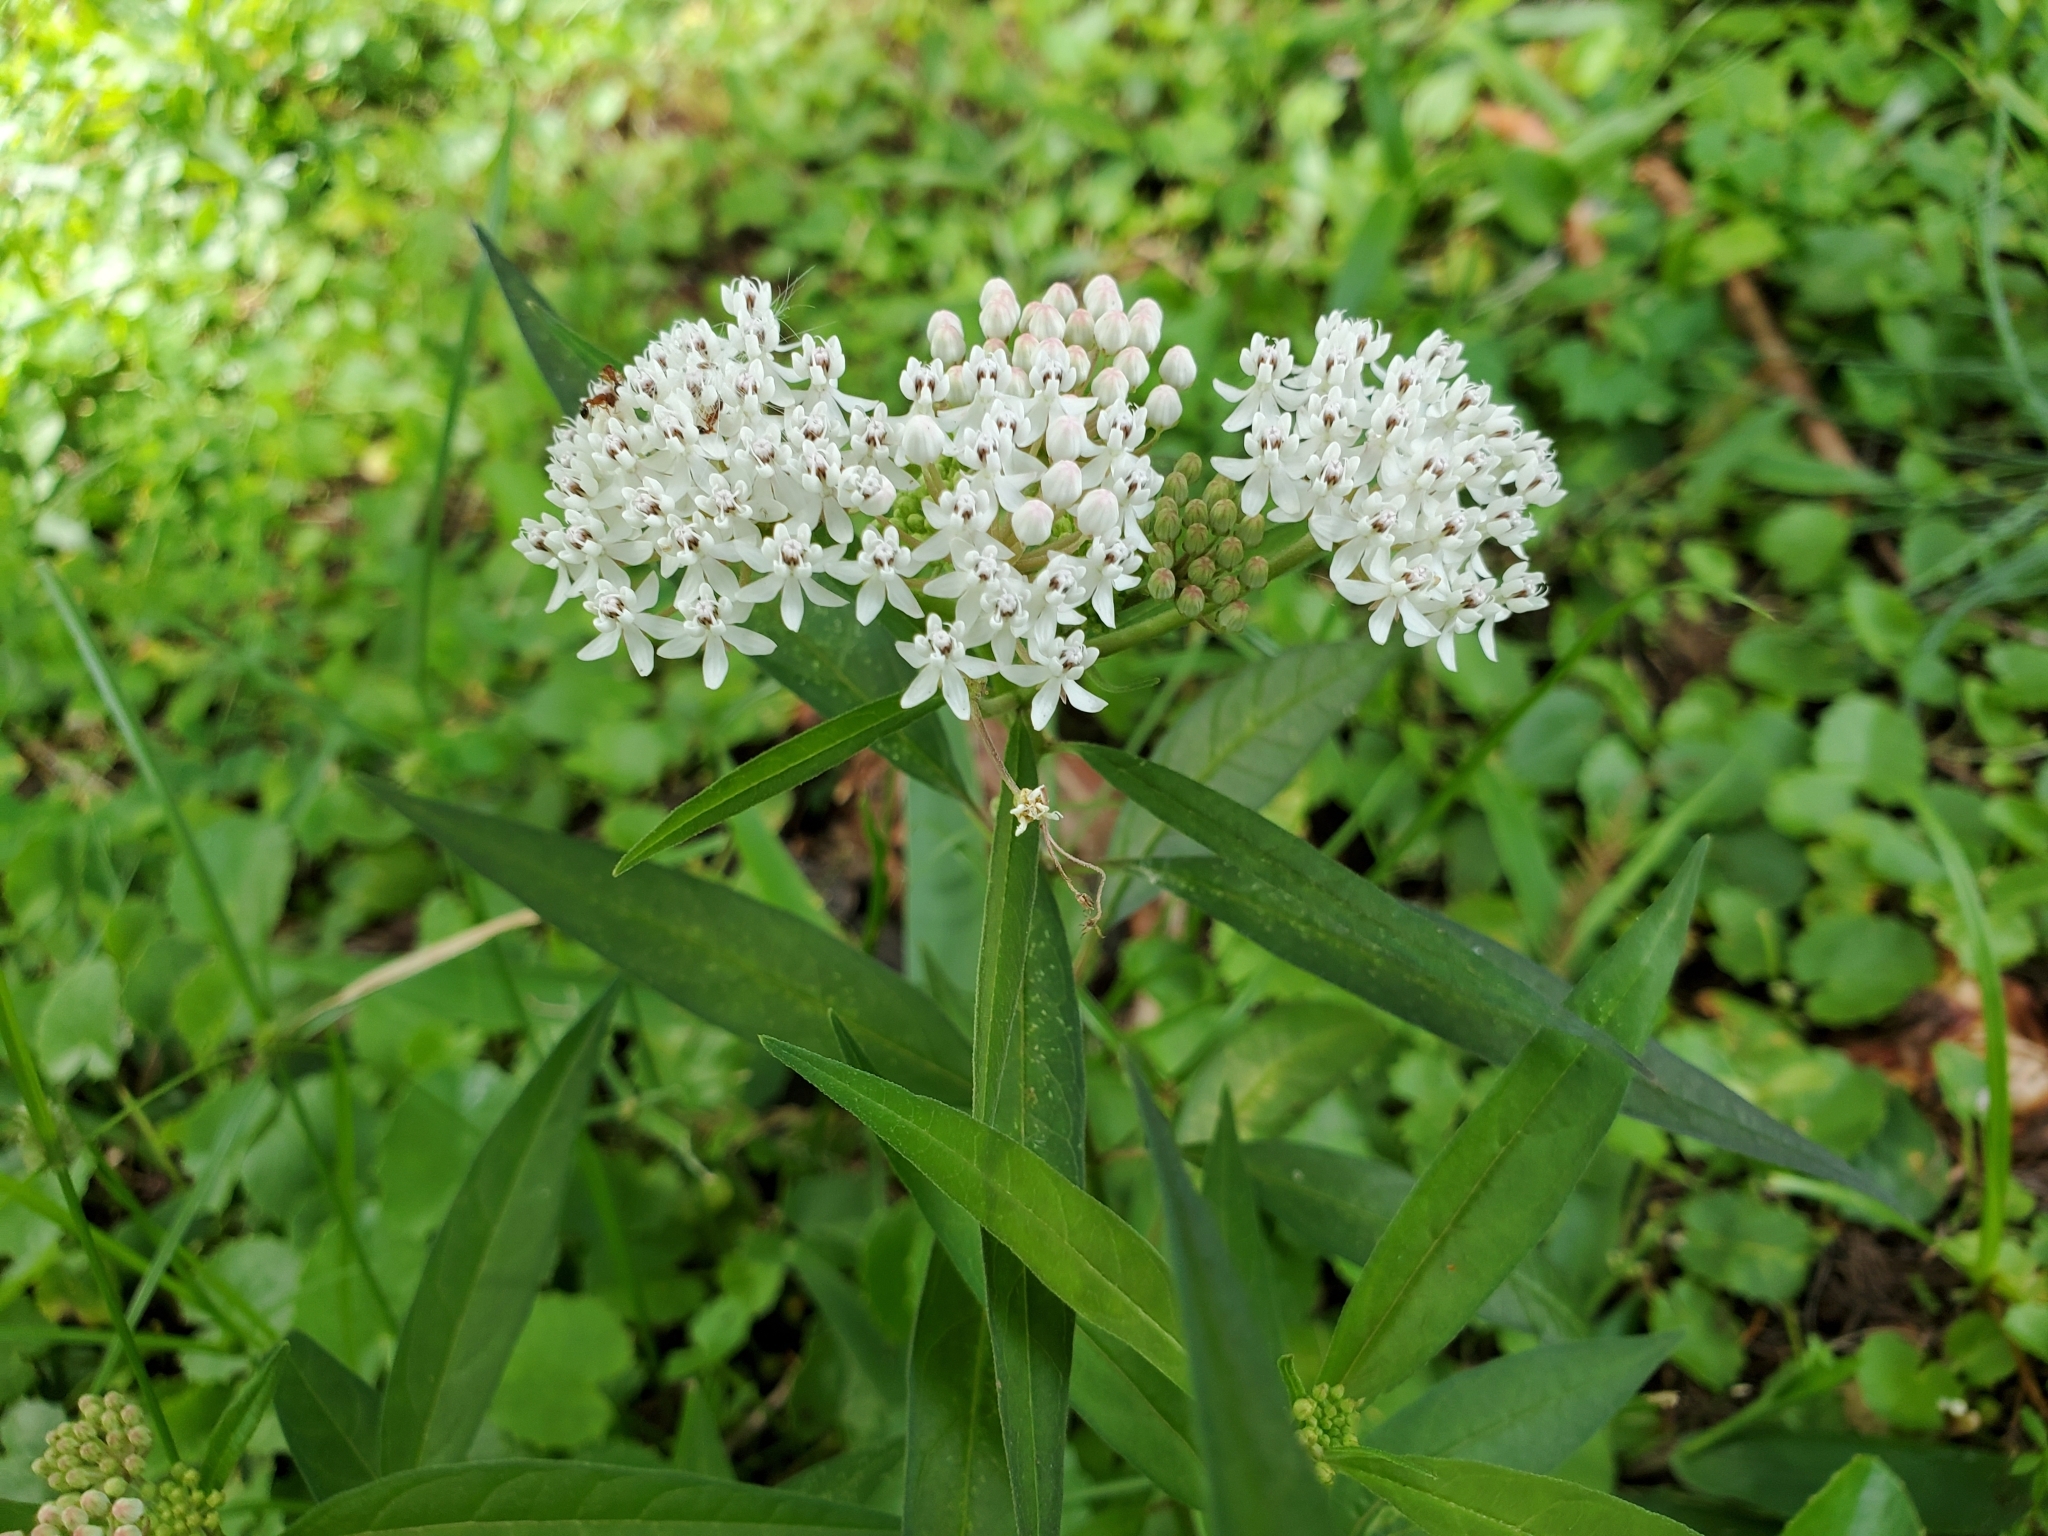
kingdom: Plantae
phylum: Tracheophyta
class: Magnoliopsida
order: Gentianales
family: Apocynaceae
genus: Asclepias
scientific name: Asclepias perennis
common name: Smooth-seed milkweed
